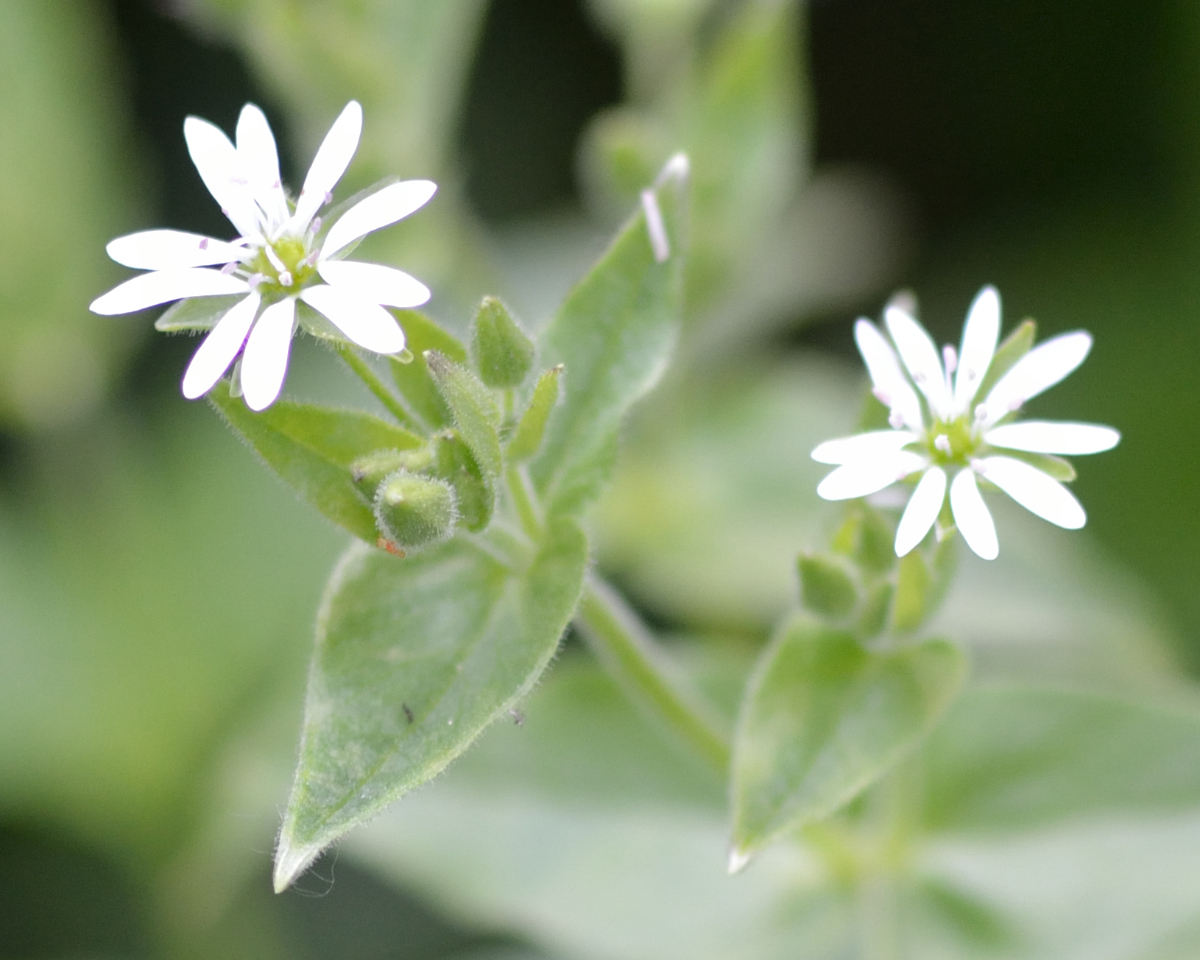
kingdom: Plantae
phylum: Tracheophyta
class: Magnoliopsida
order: Caryophyllales
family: Caryophyllaceae
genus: Stellaria
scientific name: Stellaria aquatica
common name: Water chickweed
